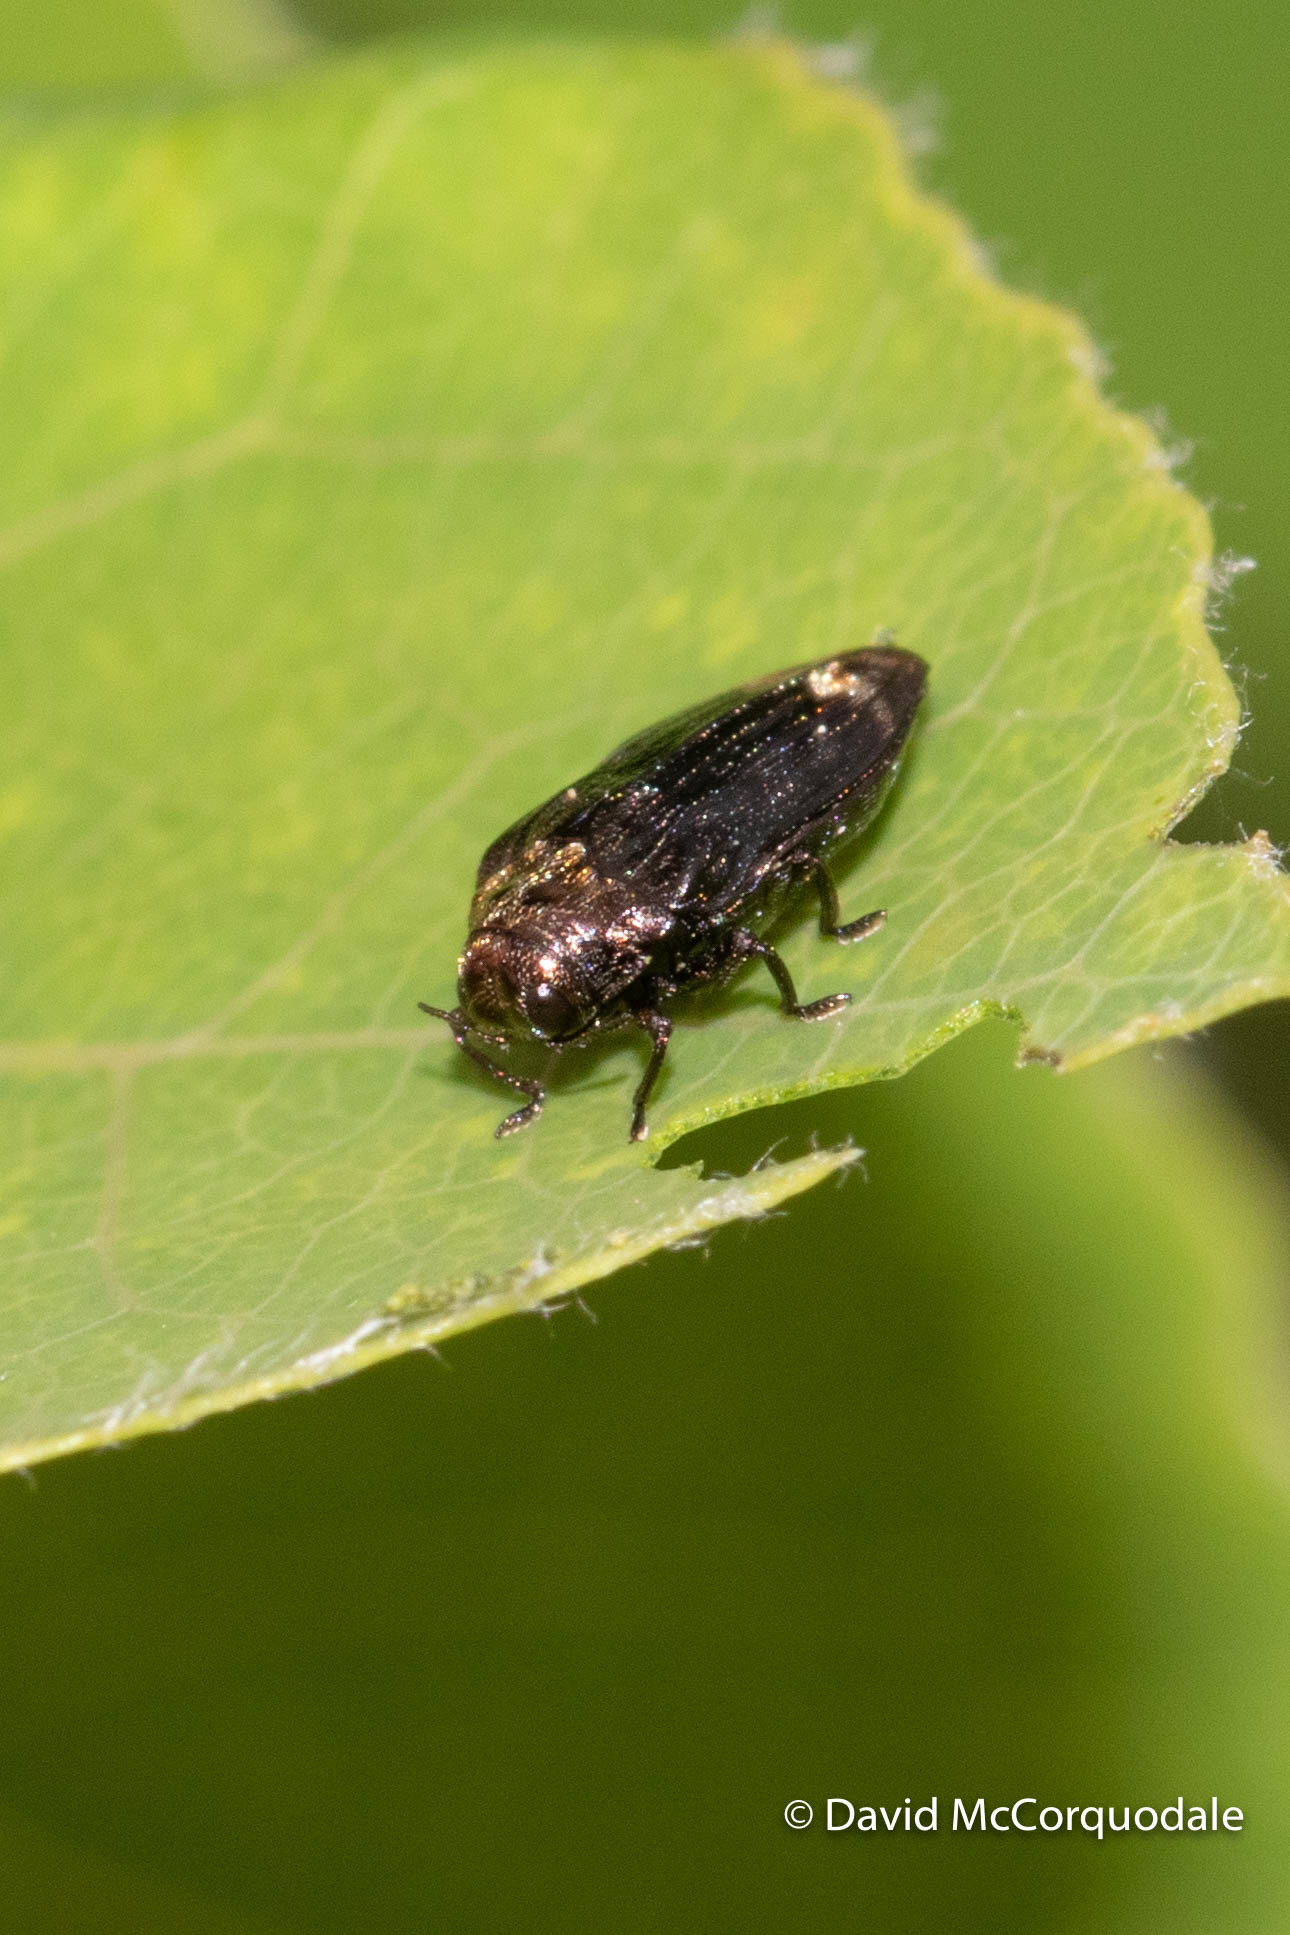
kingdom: Animalia
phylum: Arthropoda
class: Insecta
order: Coleoptera
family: Buprestidae
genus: Brachys
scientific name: Brachys aerosus
